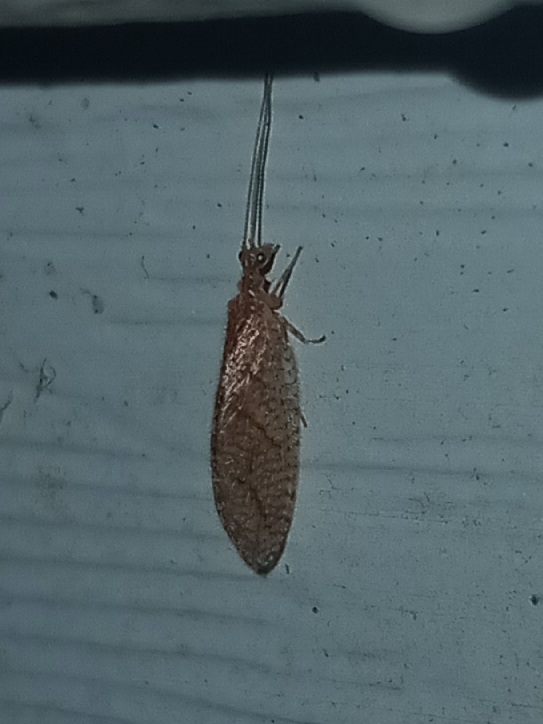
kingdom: Animalia
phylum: Arthropoda
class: Insecta
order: Neuroptera
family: Hemerobiidae
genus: Micromus
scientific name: Micromus posticus
